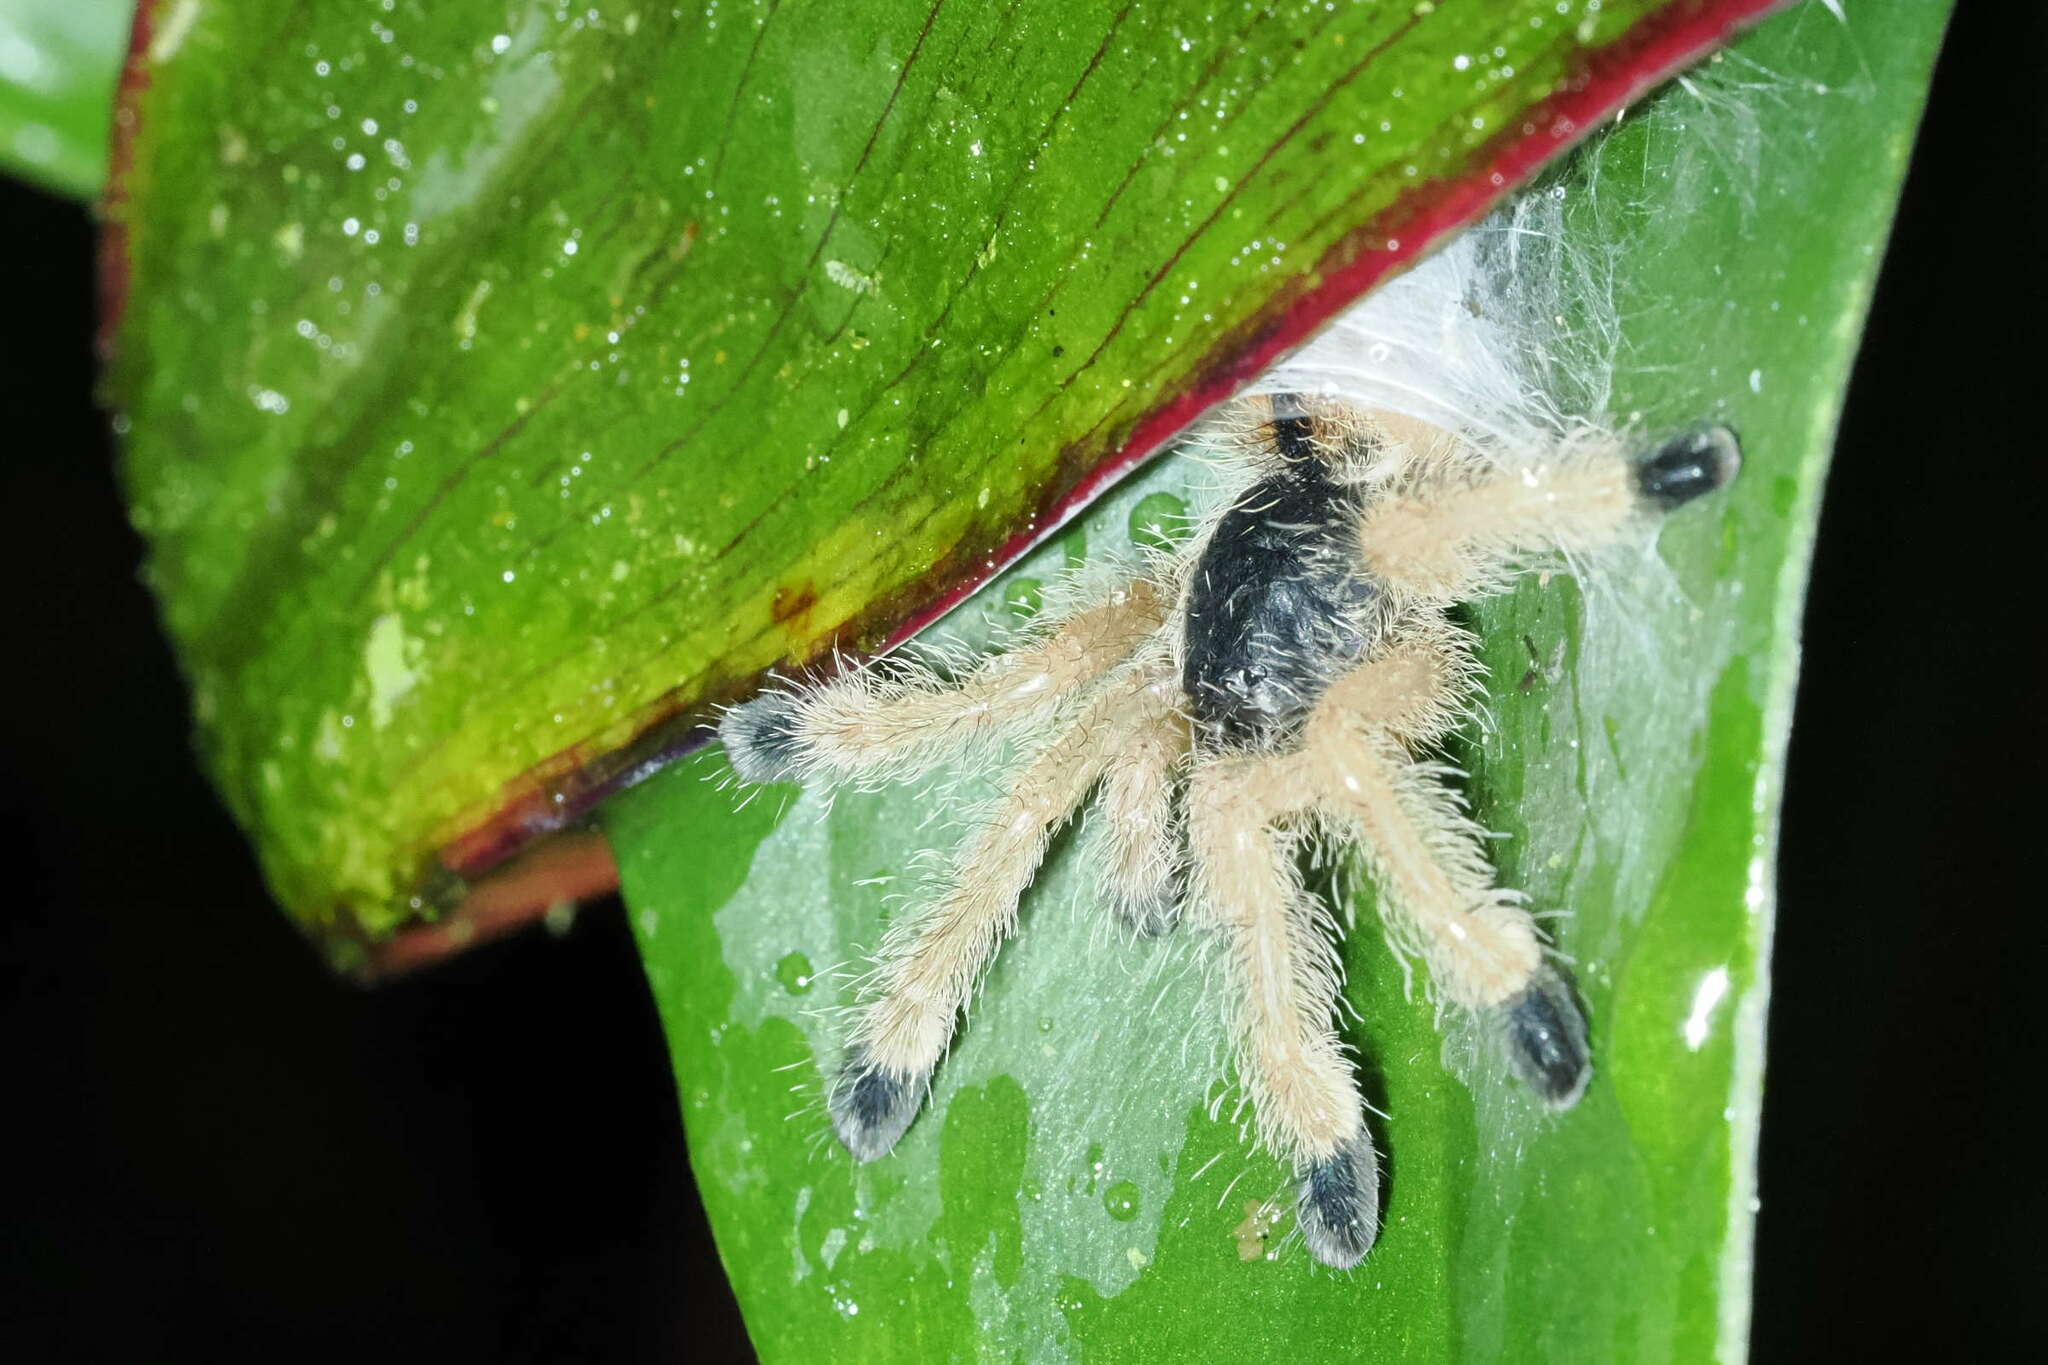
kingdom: Animalia
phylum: Arthropoda
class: Arachnida
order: Araneae
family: Theraphosidae
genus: Avicularia
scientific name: Avicularia avicularia
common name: Tarantula spiders
